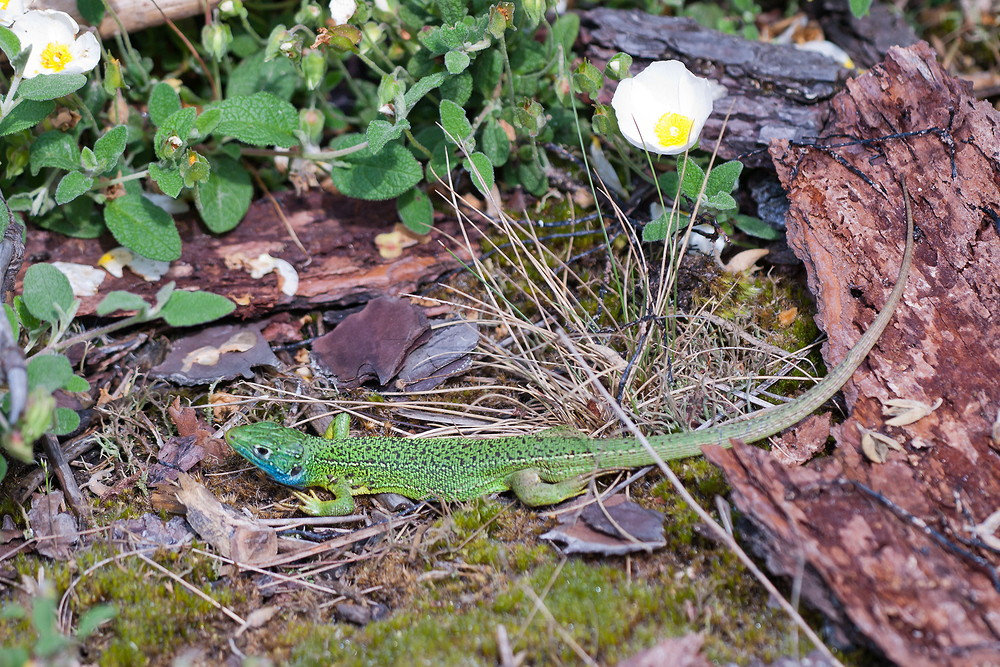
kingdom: Animalia
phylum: Chordata
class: Squamata
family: Lacertidae
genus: Lacerta
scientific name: Lacerta bilineata
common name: Western green lizard
